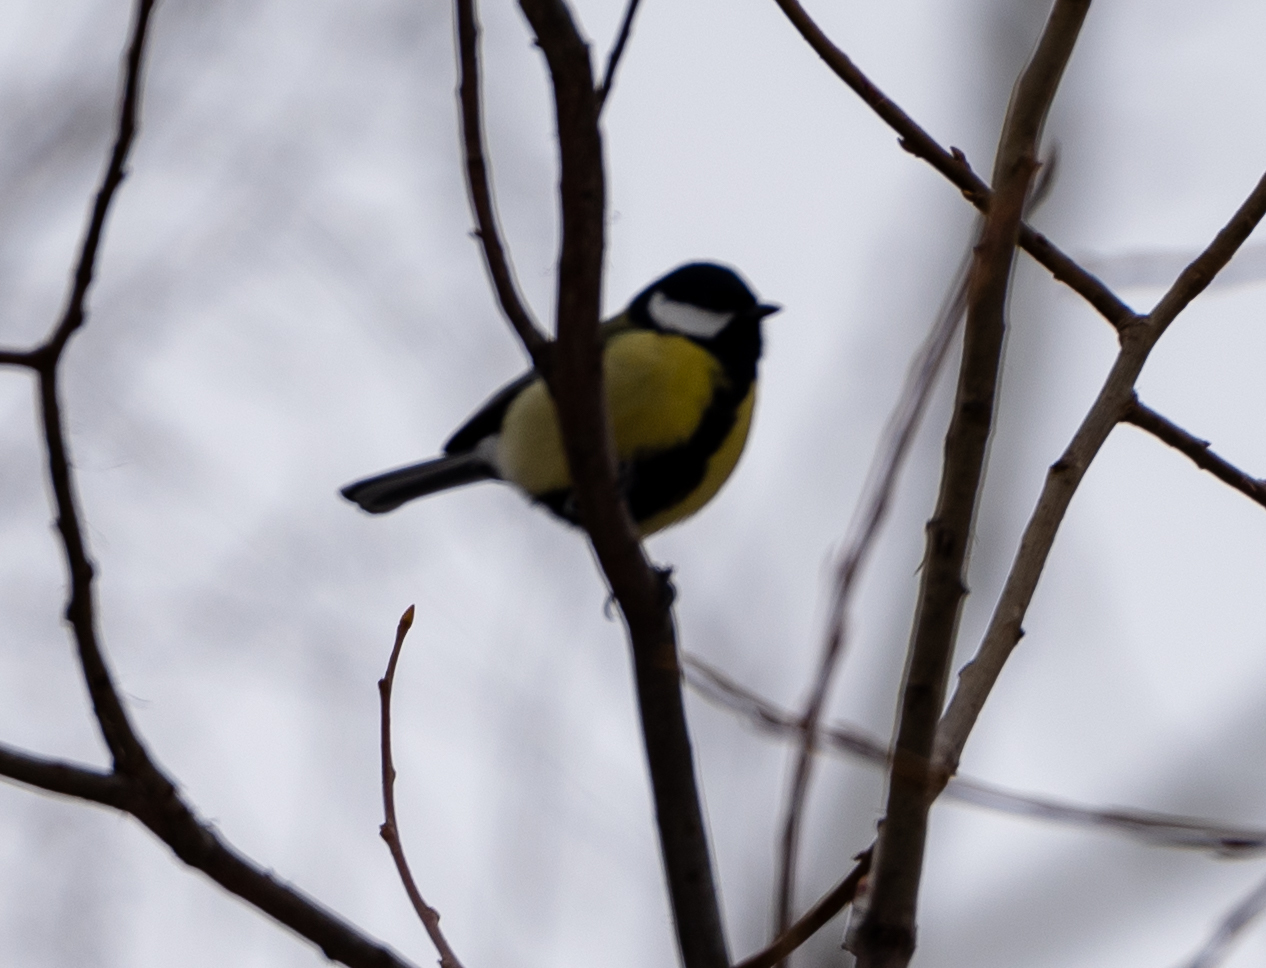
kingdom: Animalia
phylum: Chordata
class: Aves
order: Passeriformes
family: Paridae
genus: Parus
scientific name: Parus major
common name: Great tit
